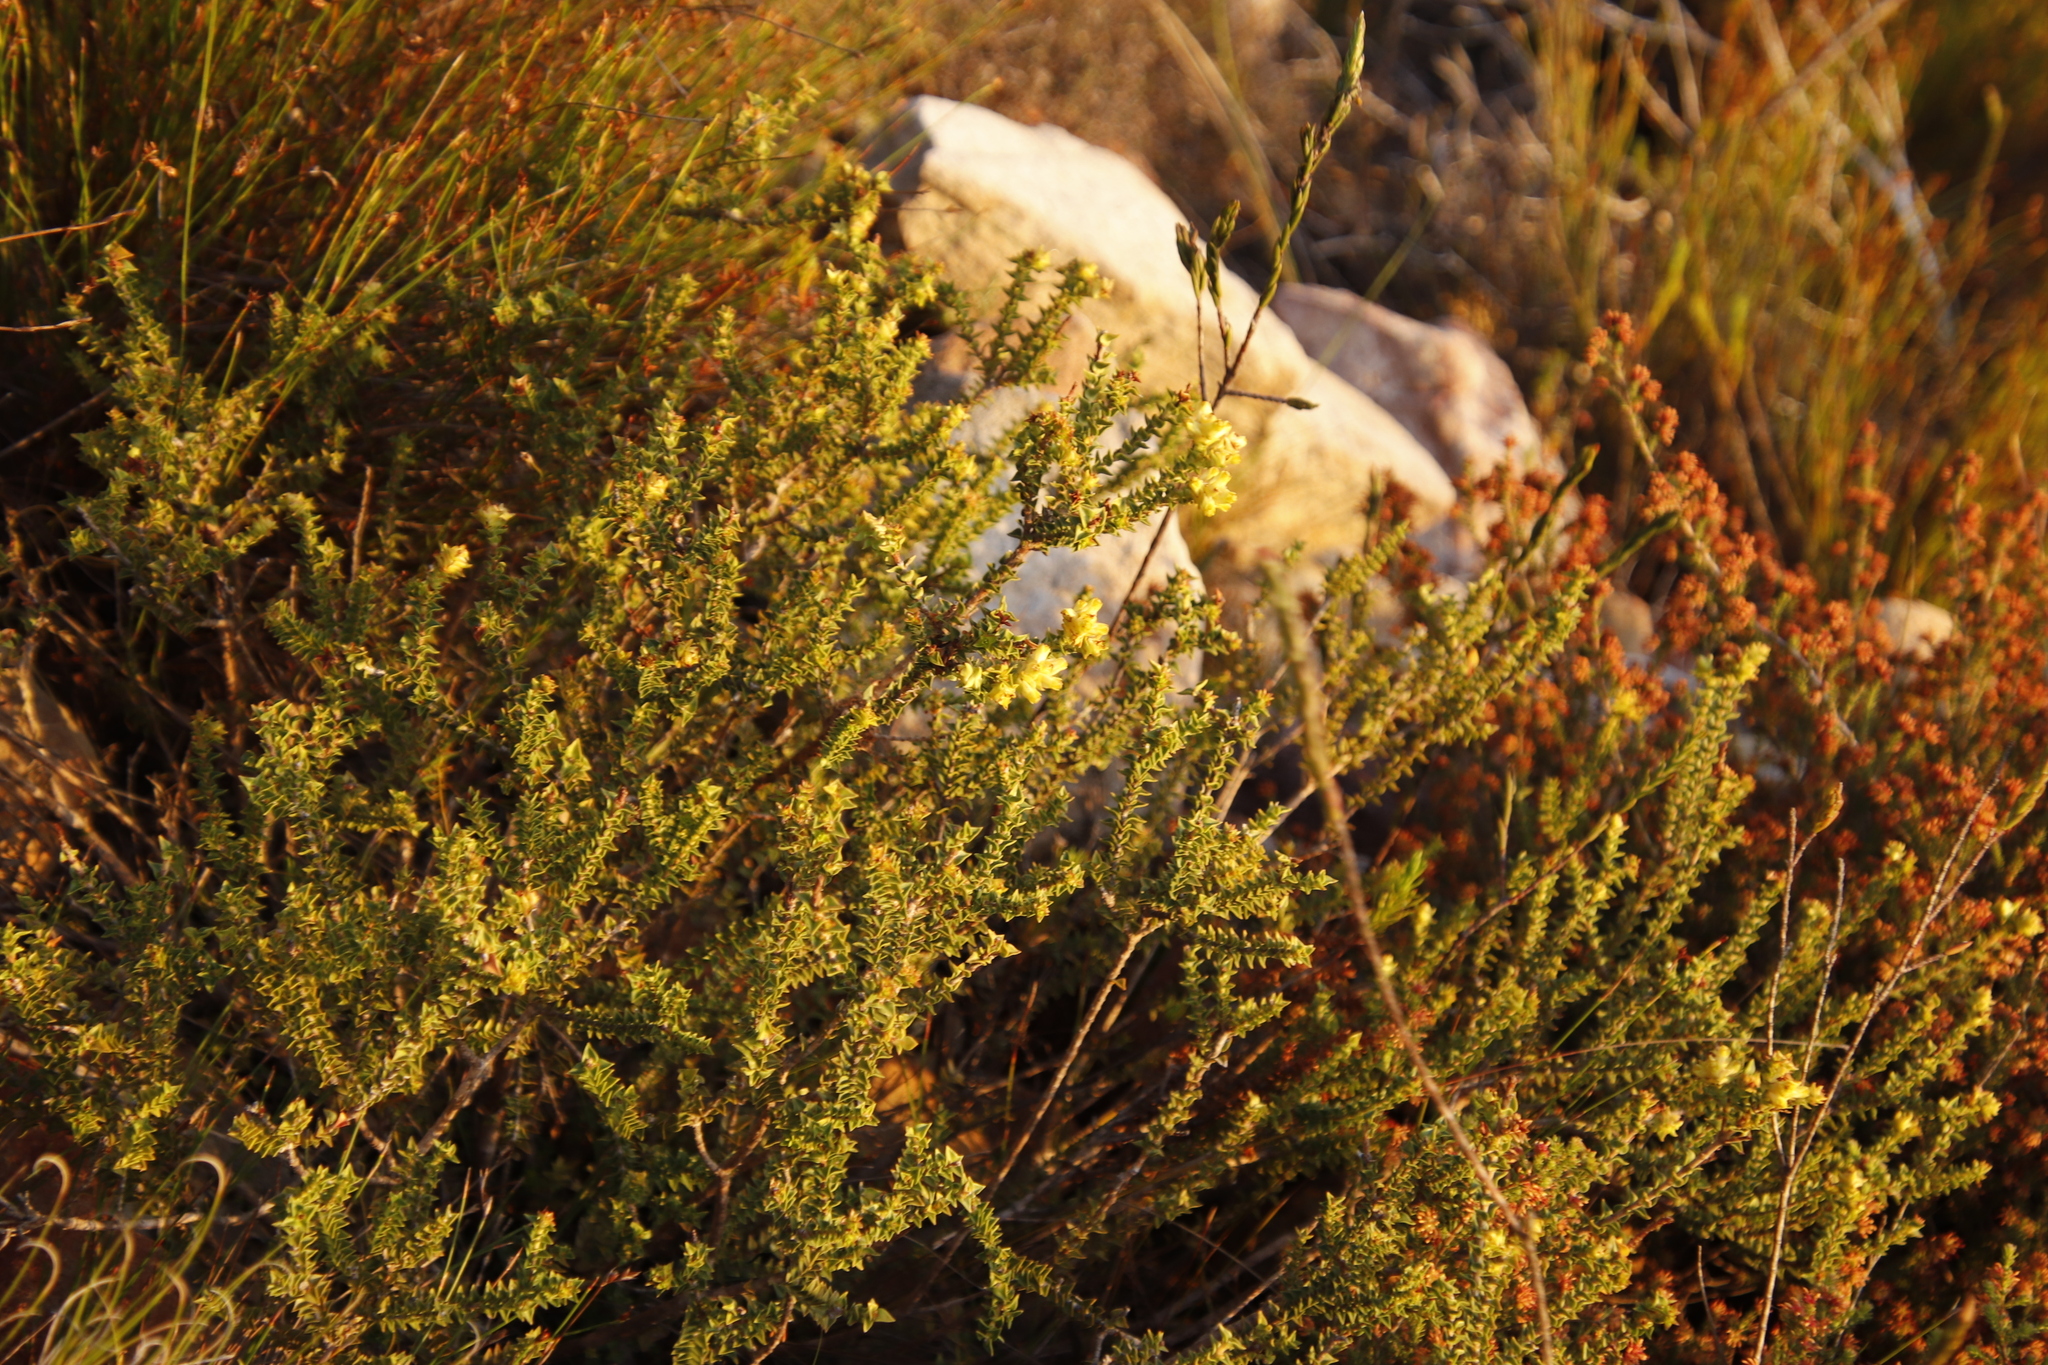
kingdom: Plantae
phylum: Tracheophyta
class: Magnoliopsida
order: Myrtales
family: Penaeaceae
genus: Penaea
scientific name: Penaea mucronata
